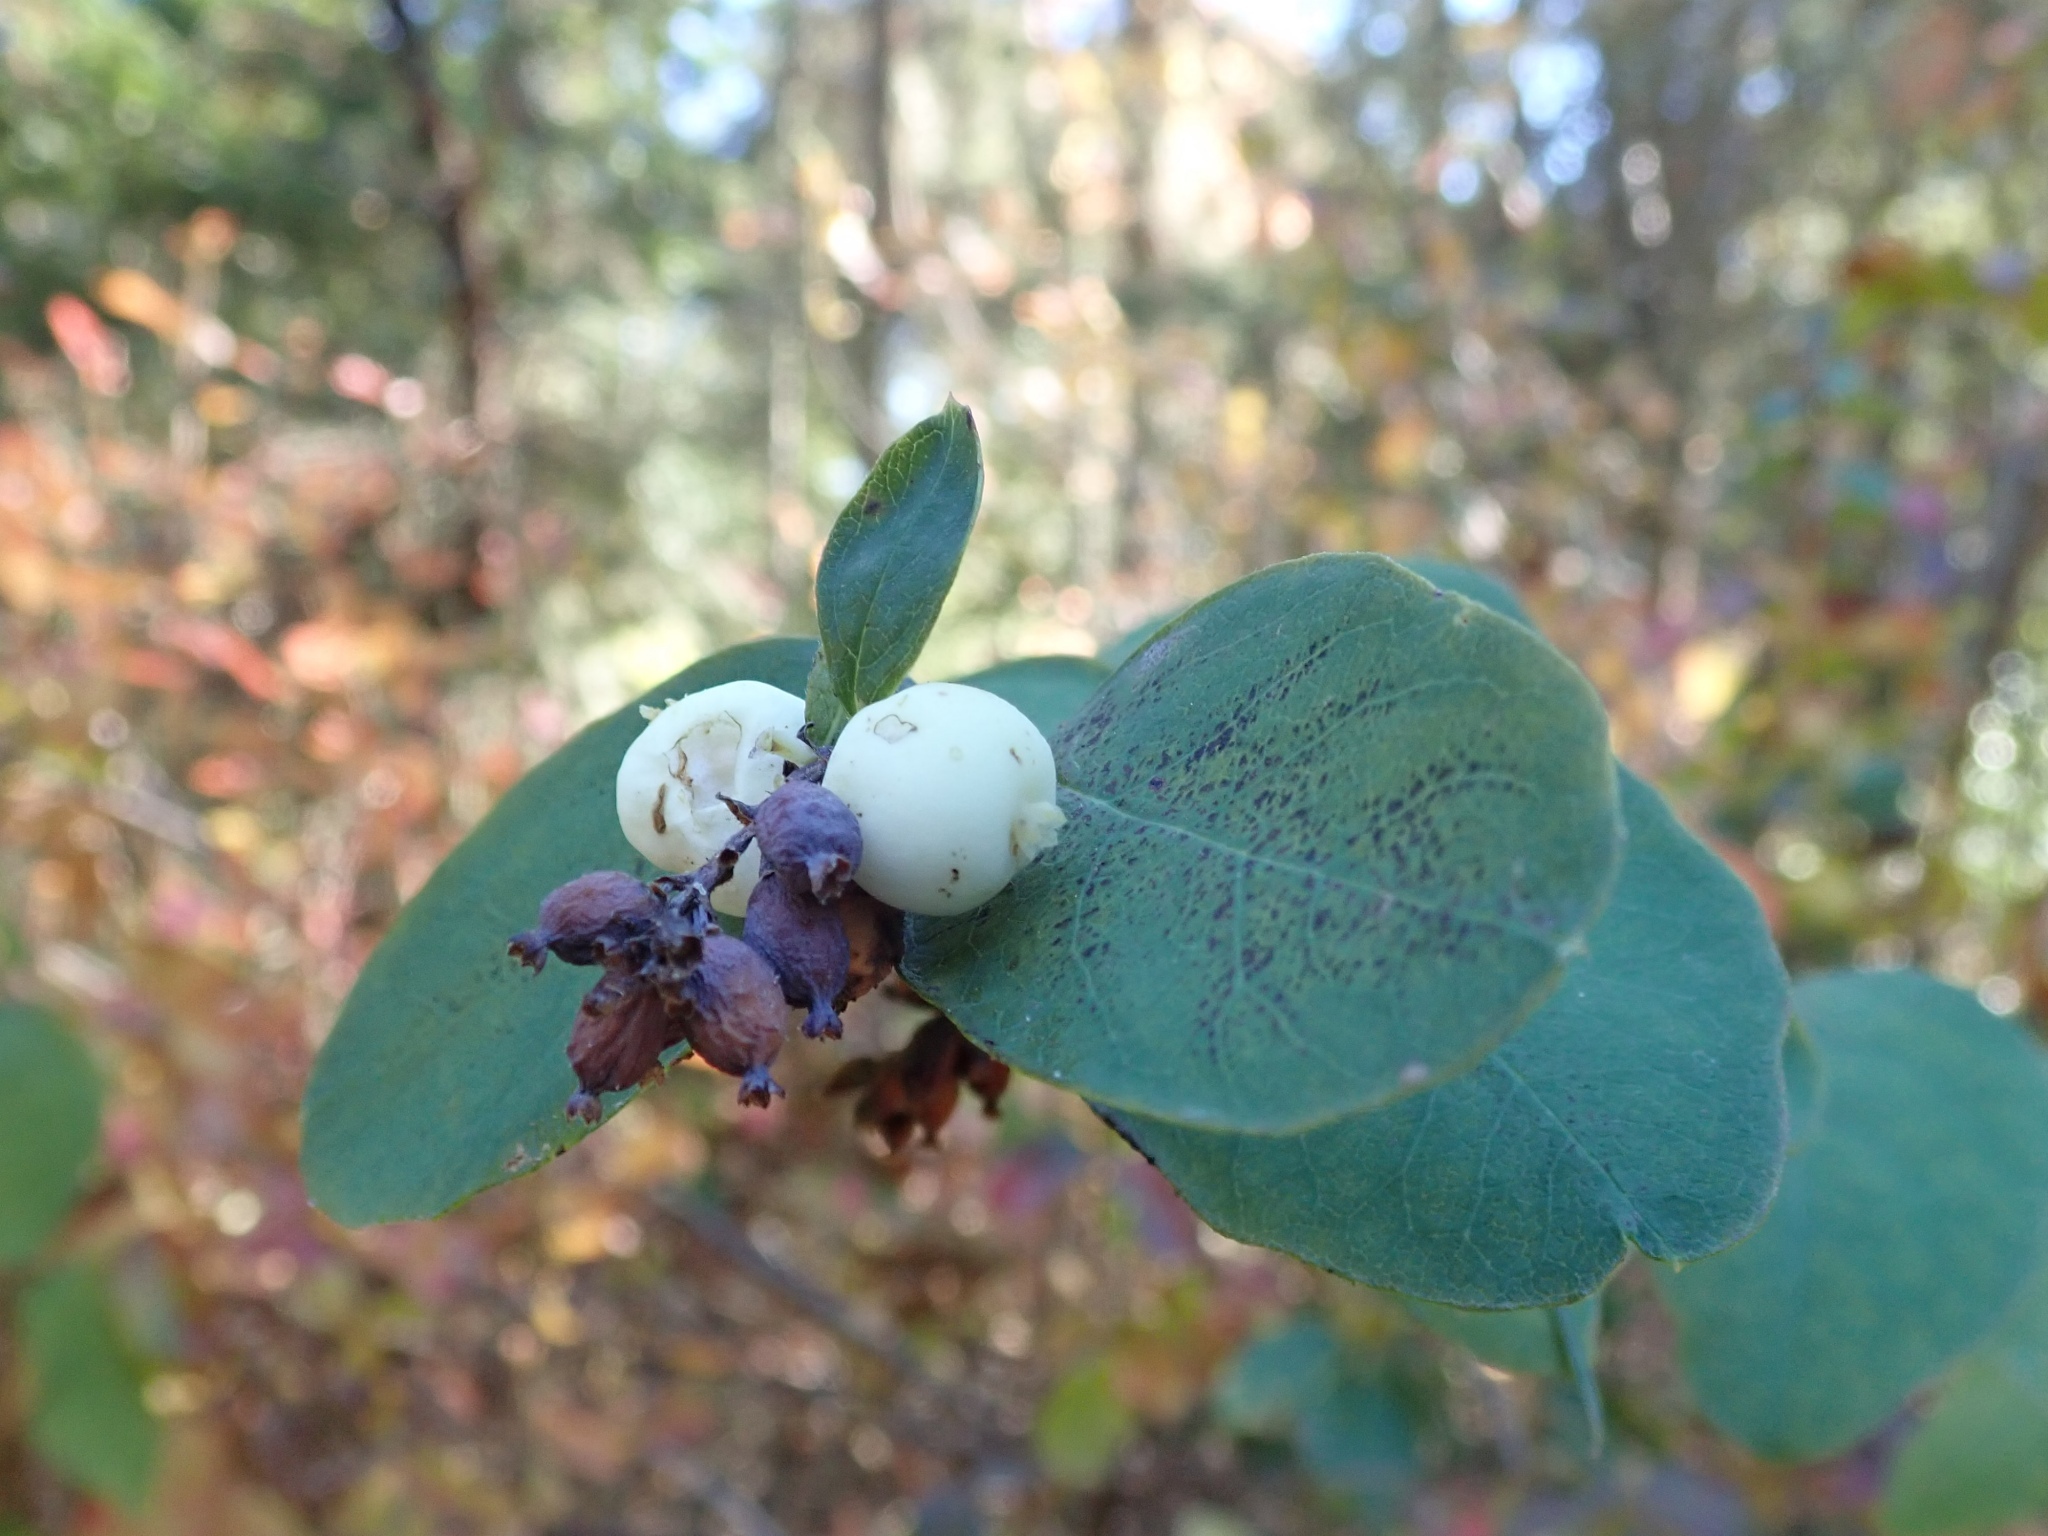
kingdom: Plantae
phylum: Tracheophyta
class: Magnoliopsida
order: Dipsacales
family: Caprifoliaceae
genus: Symphoricarpos
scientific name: Symphoricarpos albus
